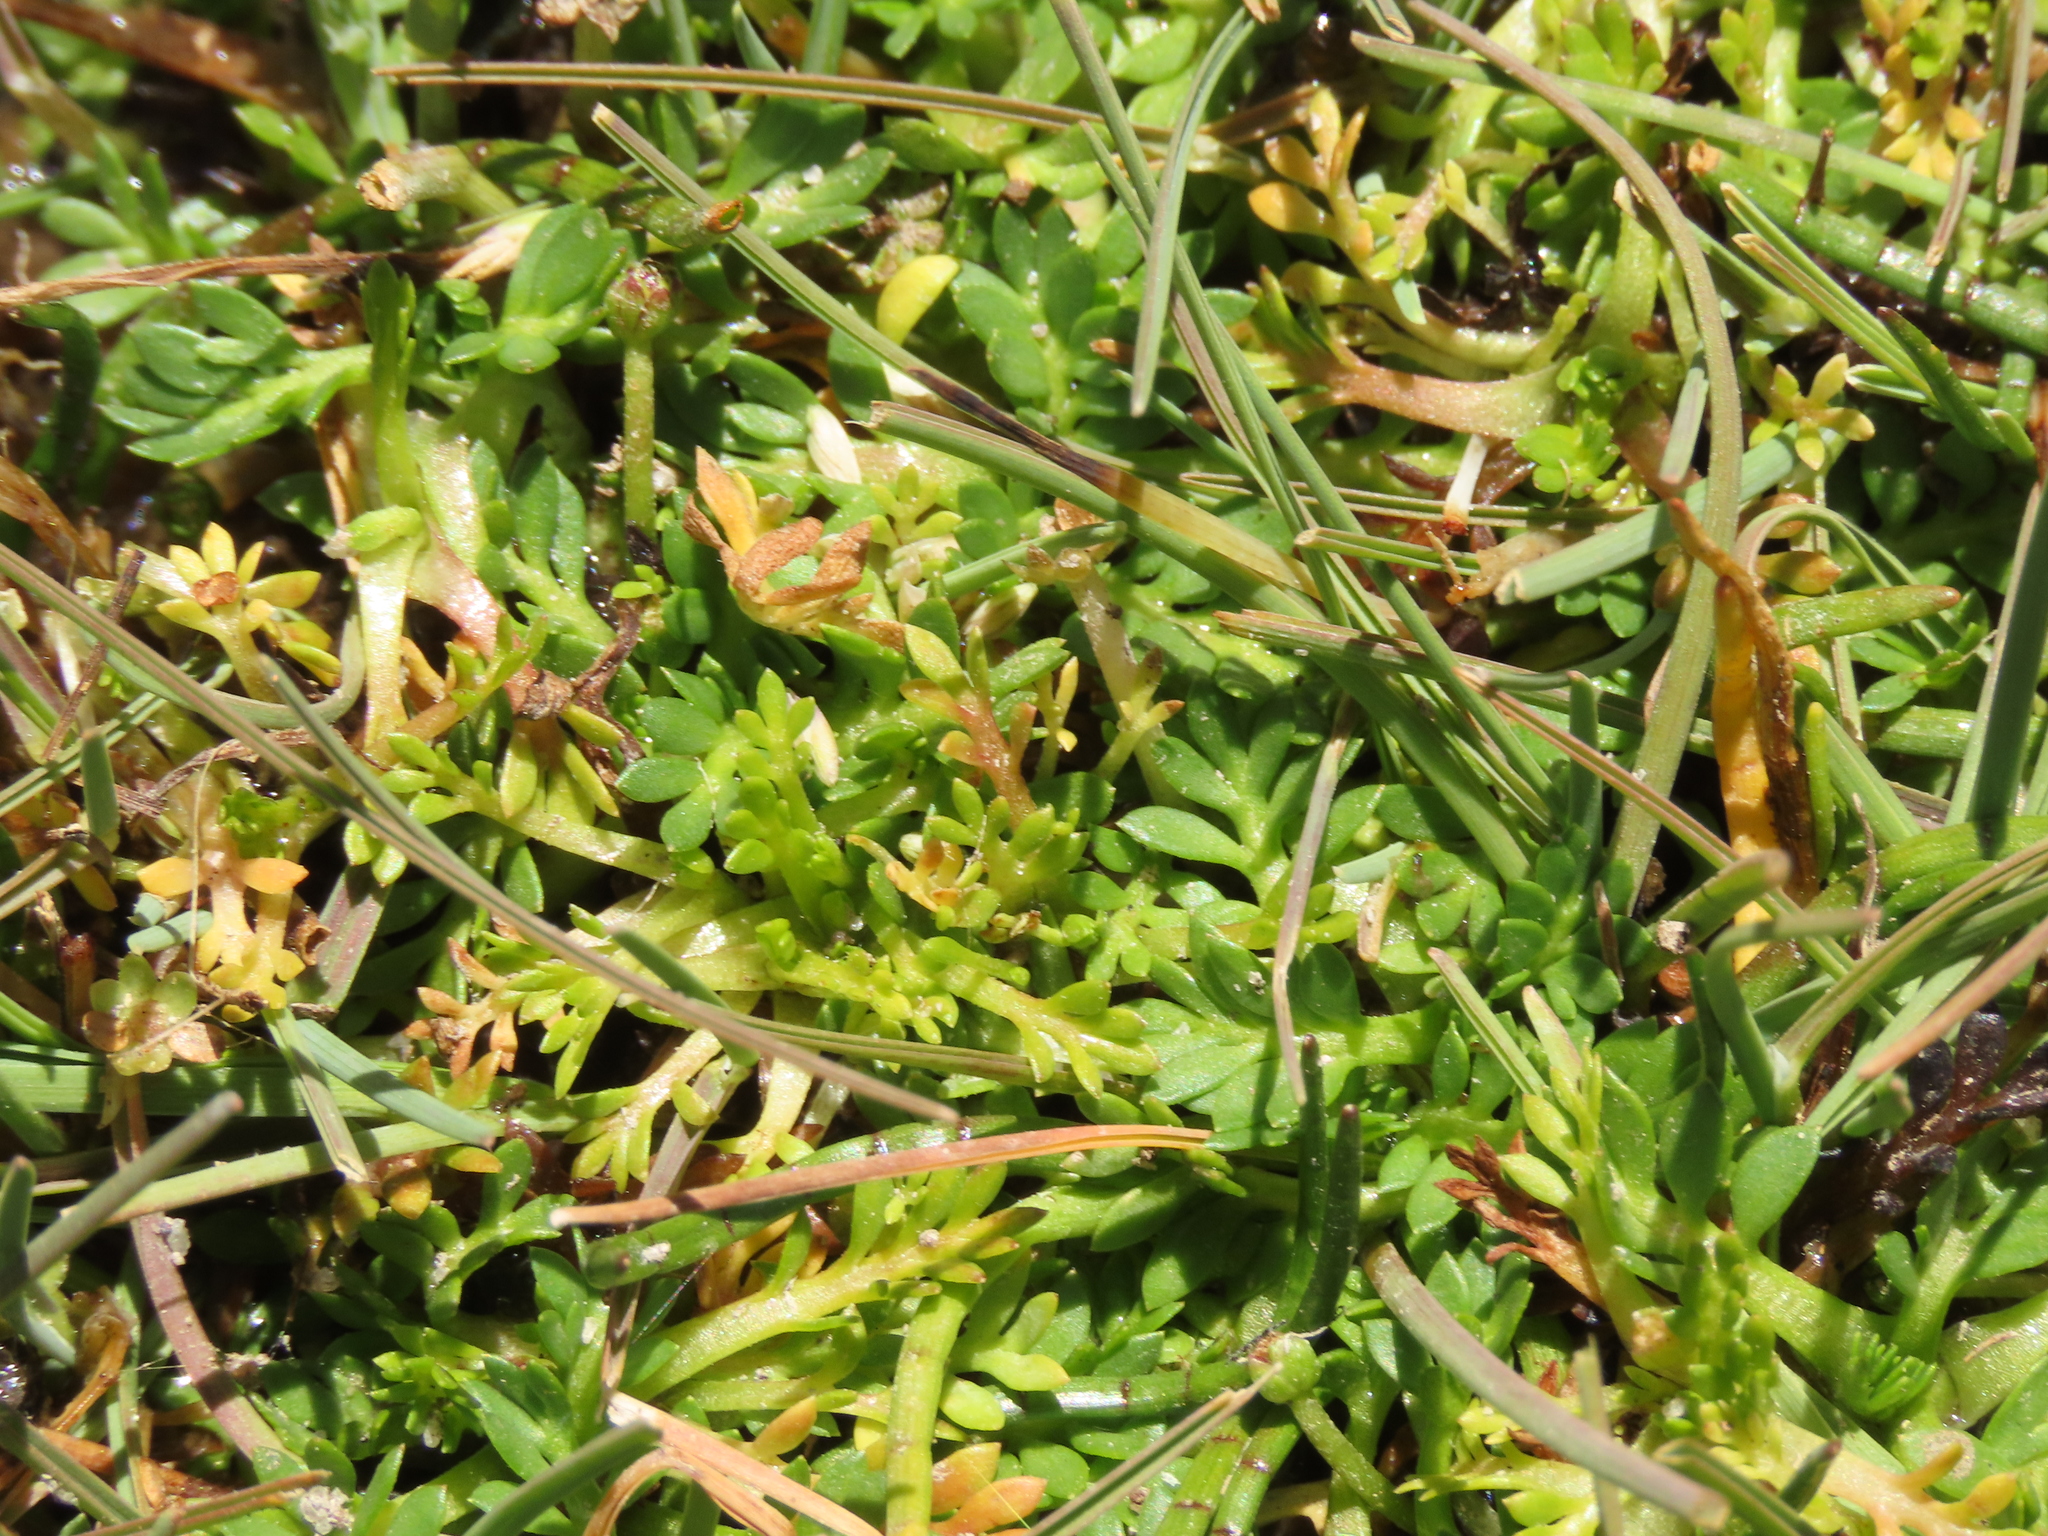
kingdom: Plantae
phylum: Tracheophyta
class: Magnoliopsida
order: Asterales
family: Asteraceae
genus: Soliva
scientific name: Soliva mexicana
